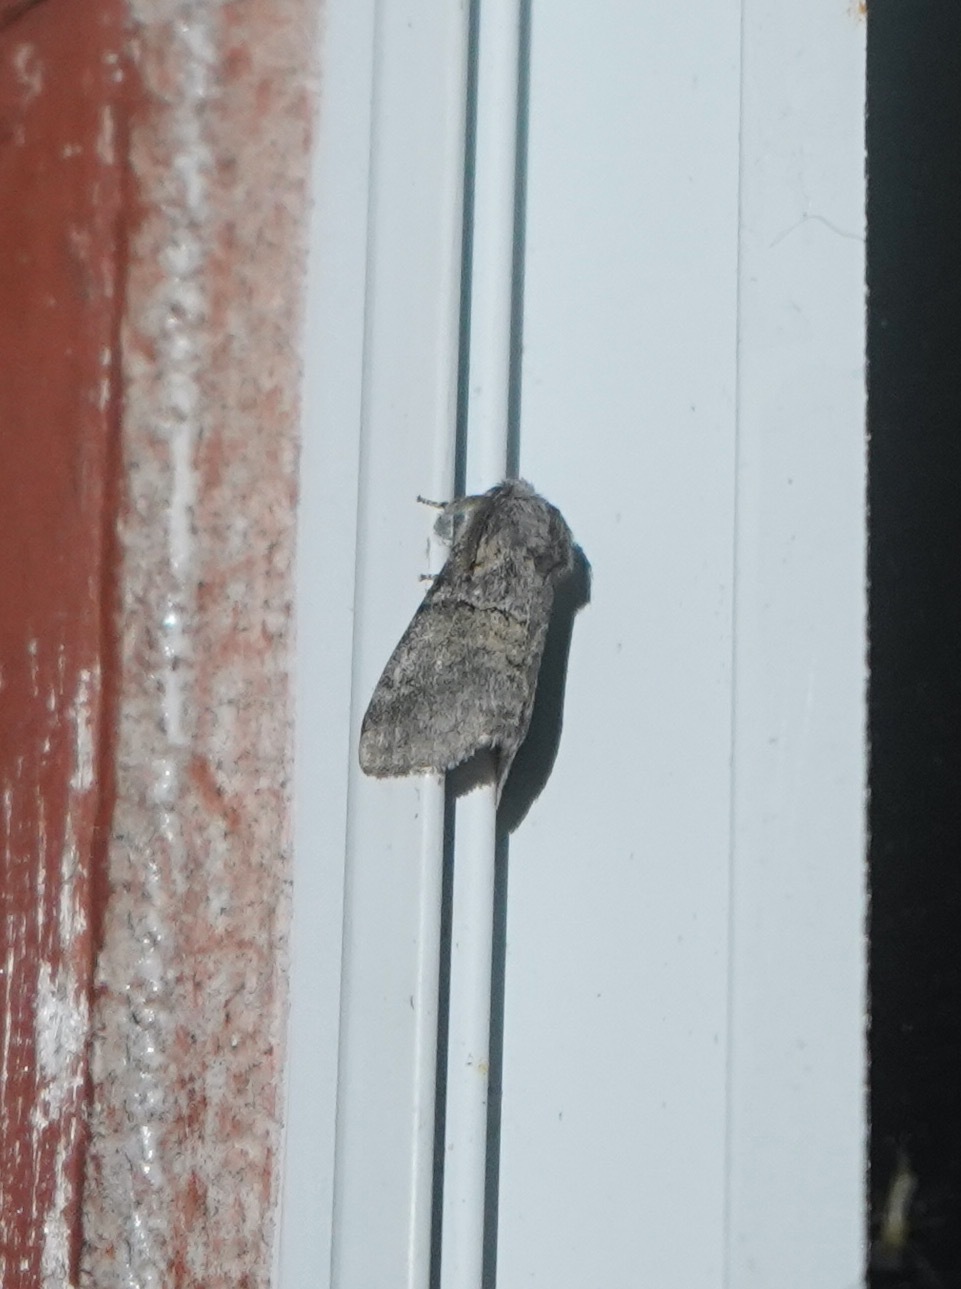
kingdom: Animalia
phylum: Arthropoda
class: Insecta
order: Lepidoptera
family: Notodontidae
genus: Gluphisia
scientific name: Gluphisia septentrionis
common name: Common gluphisia
